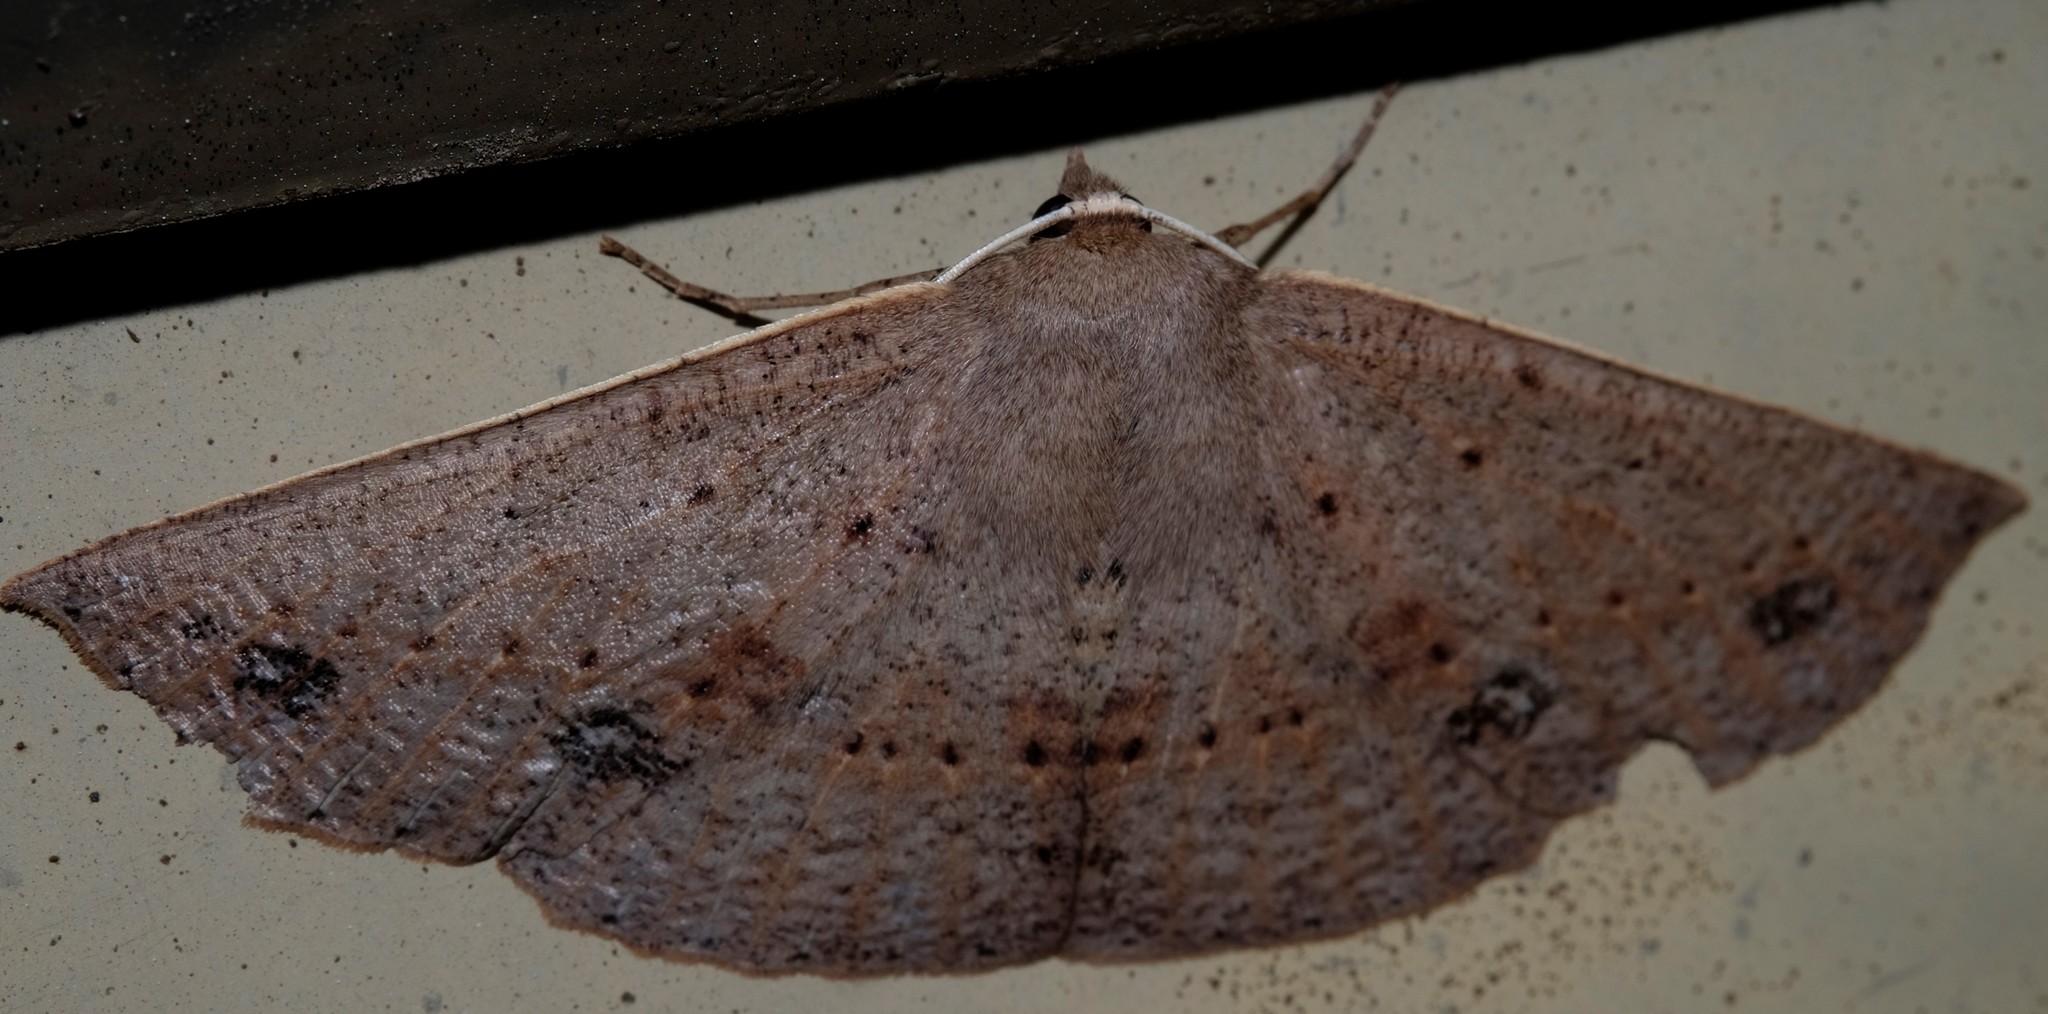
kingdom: Animalia
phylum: Arthropoda
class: Insecta
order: Lepidoptera
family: Geometridae
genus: Idiodes
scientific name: Idiodes siculoides
